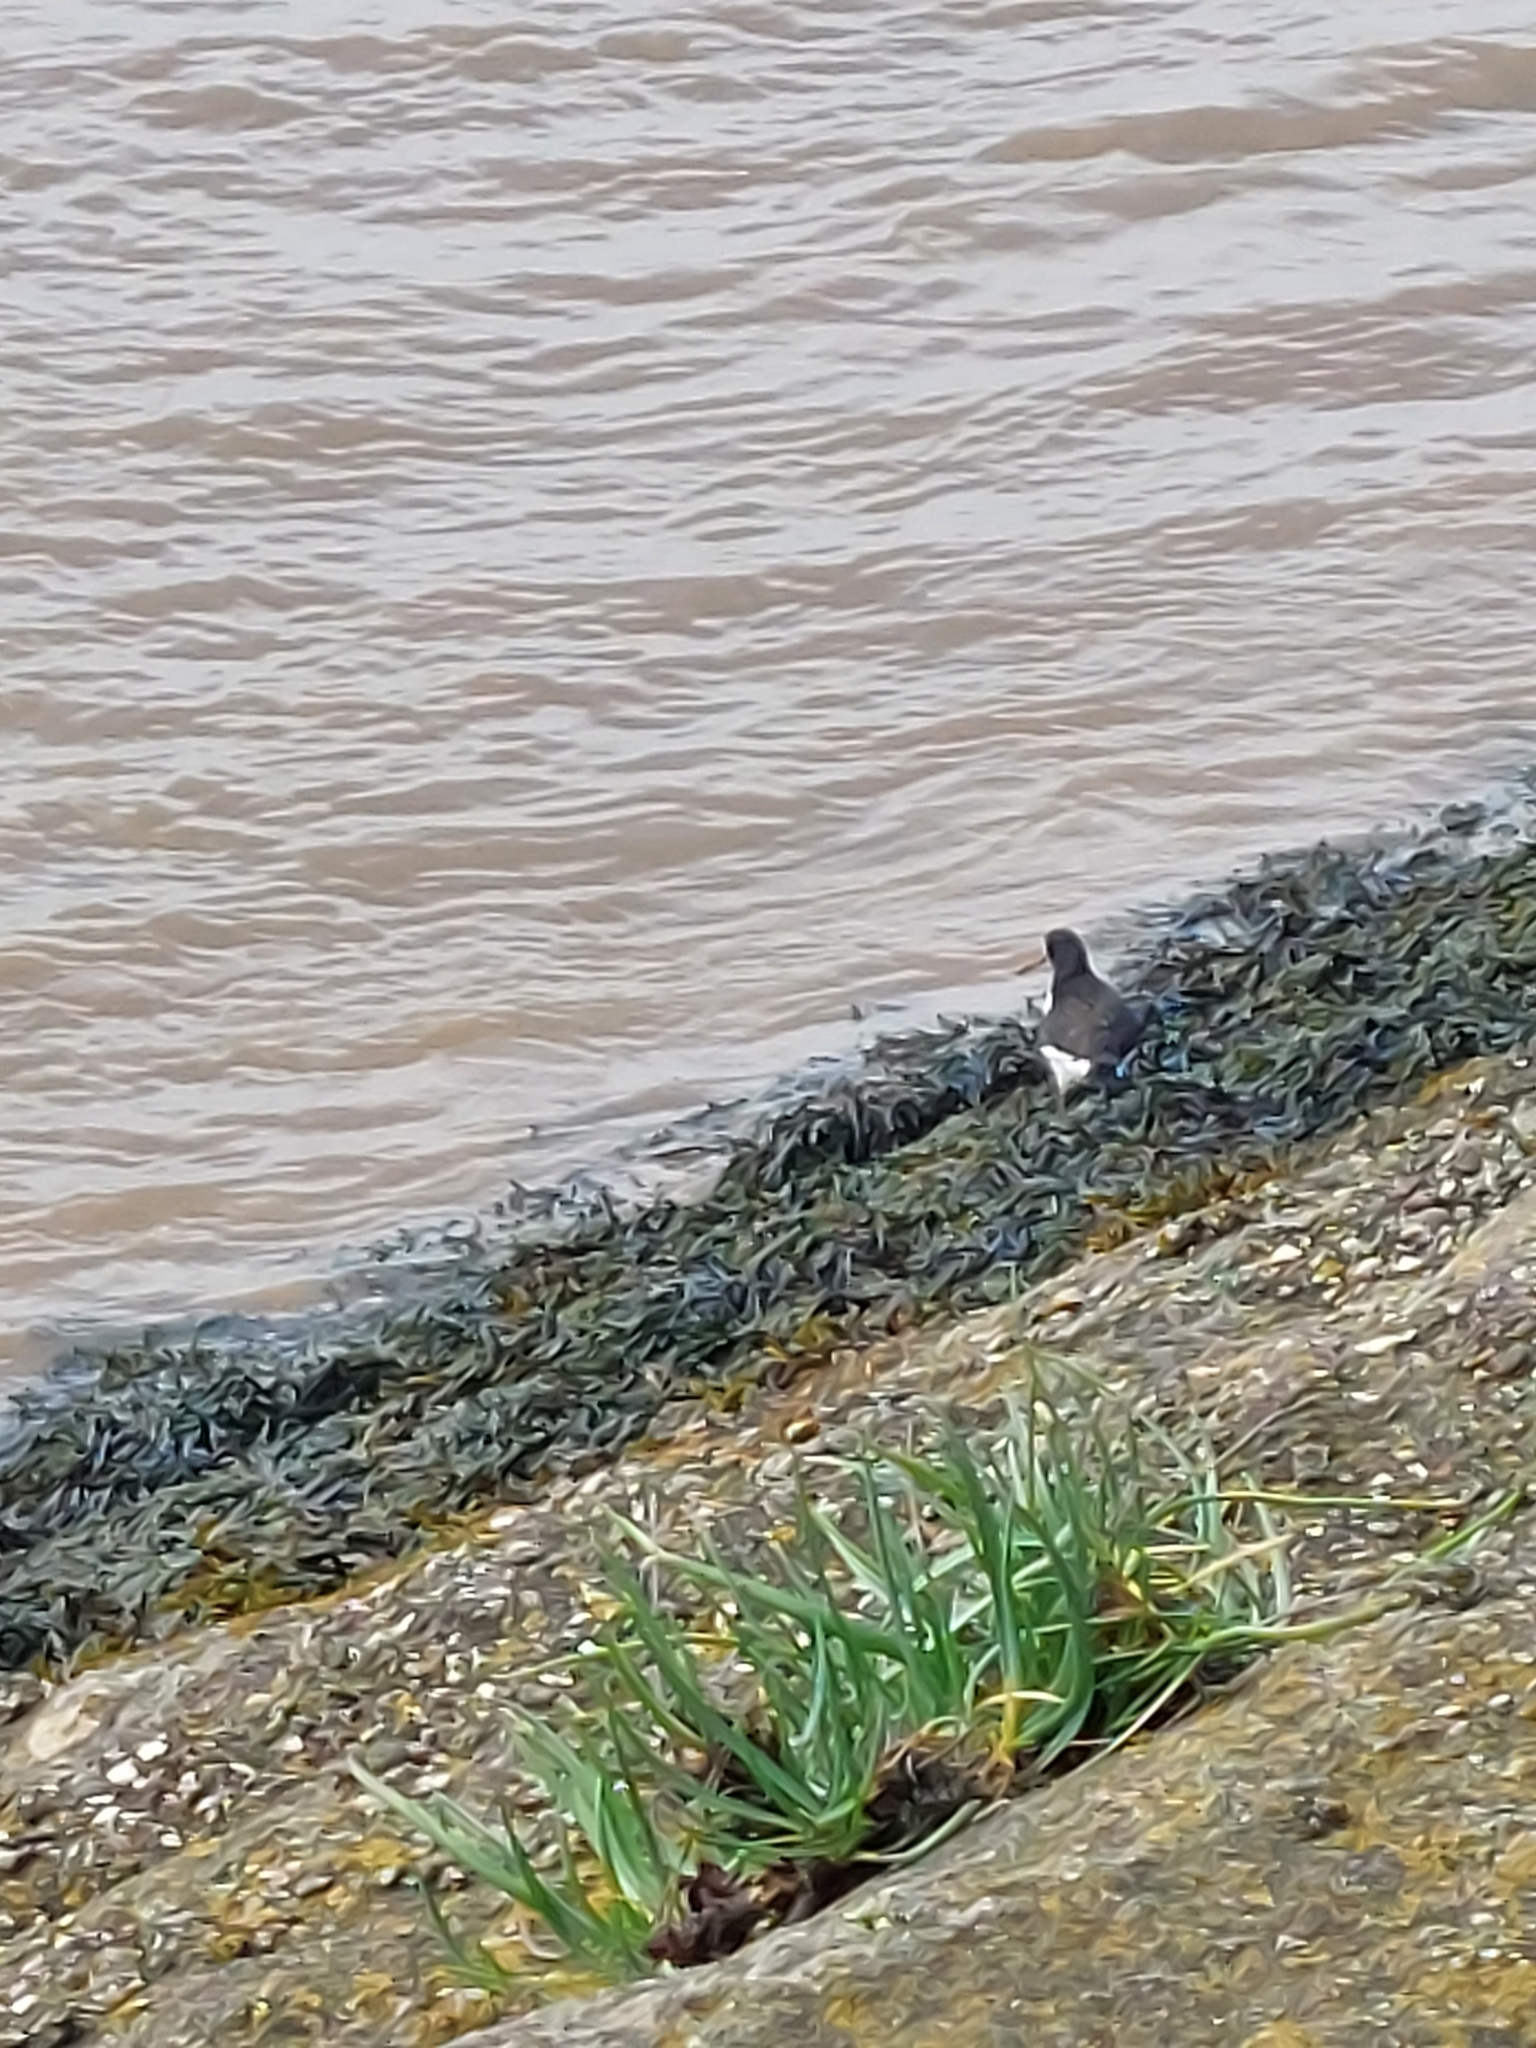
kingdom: Animalia
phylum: Chordata
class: Aves
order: Charadriiformes
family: Haematopodidae
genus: Haematopus
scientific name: Haematopus ostralegus
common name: Eurasian oystercatcher
